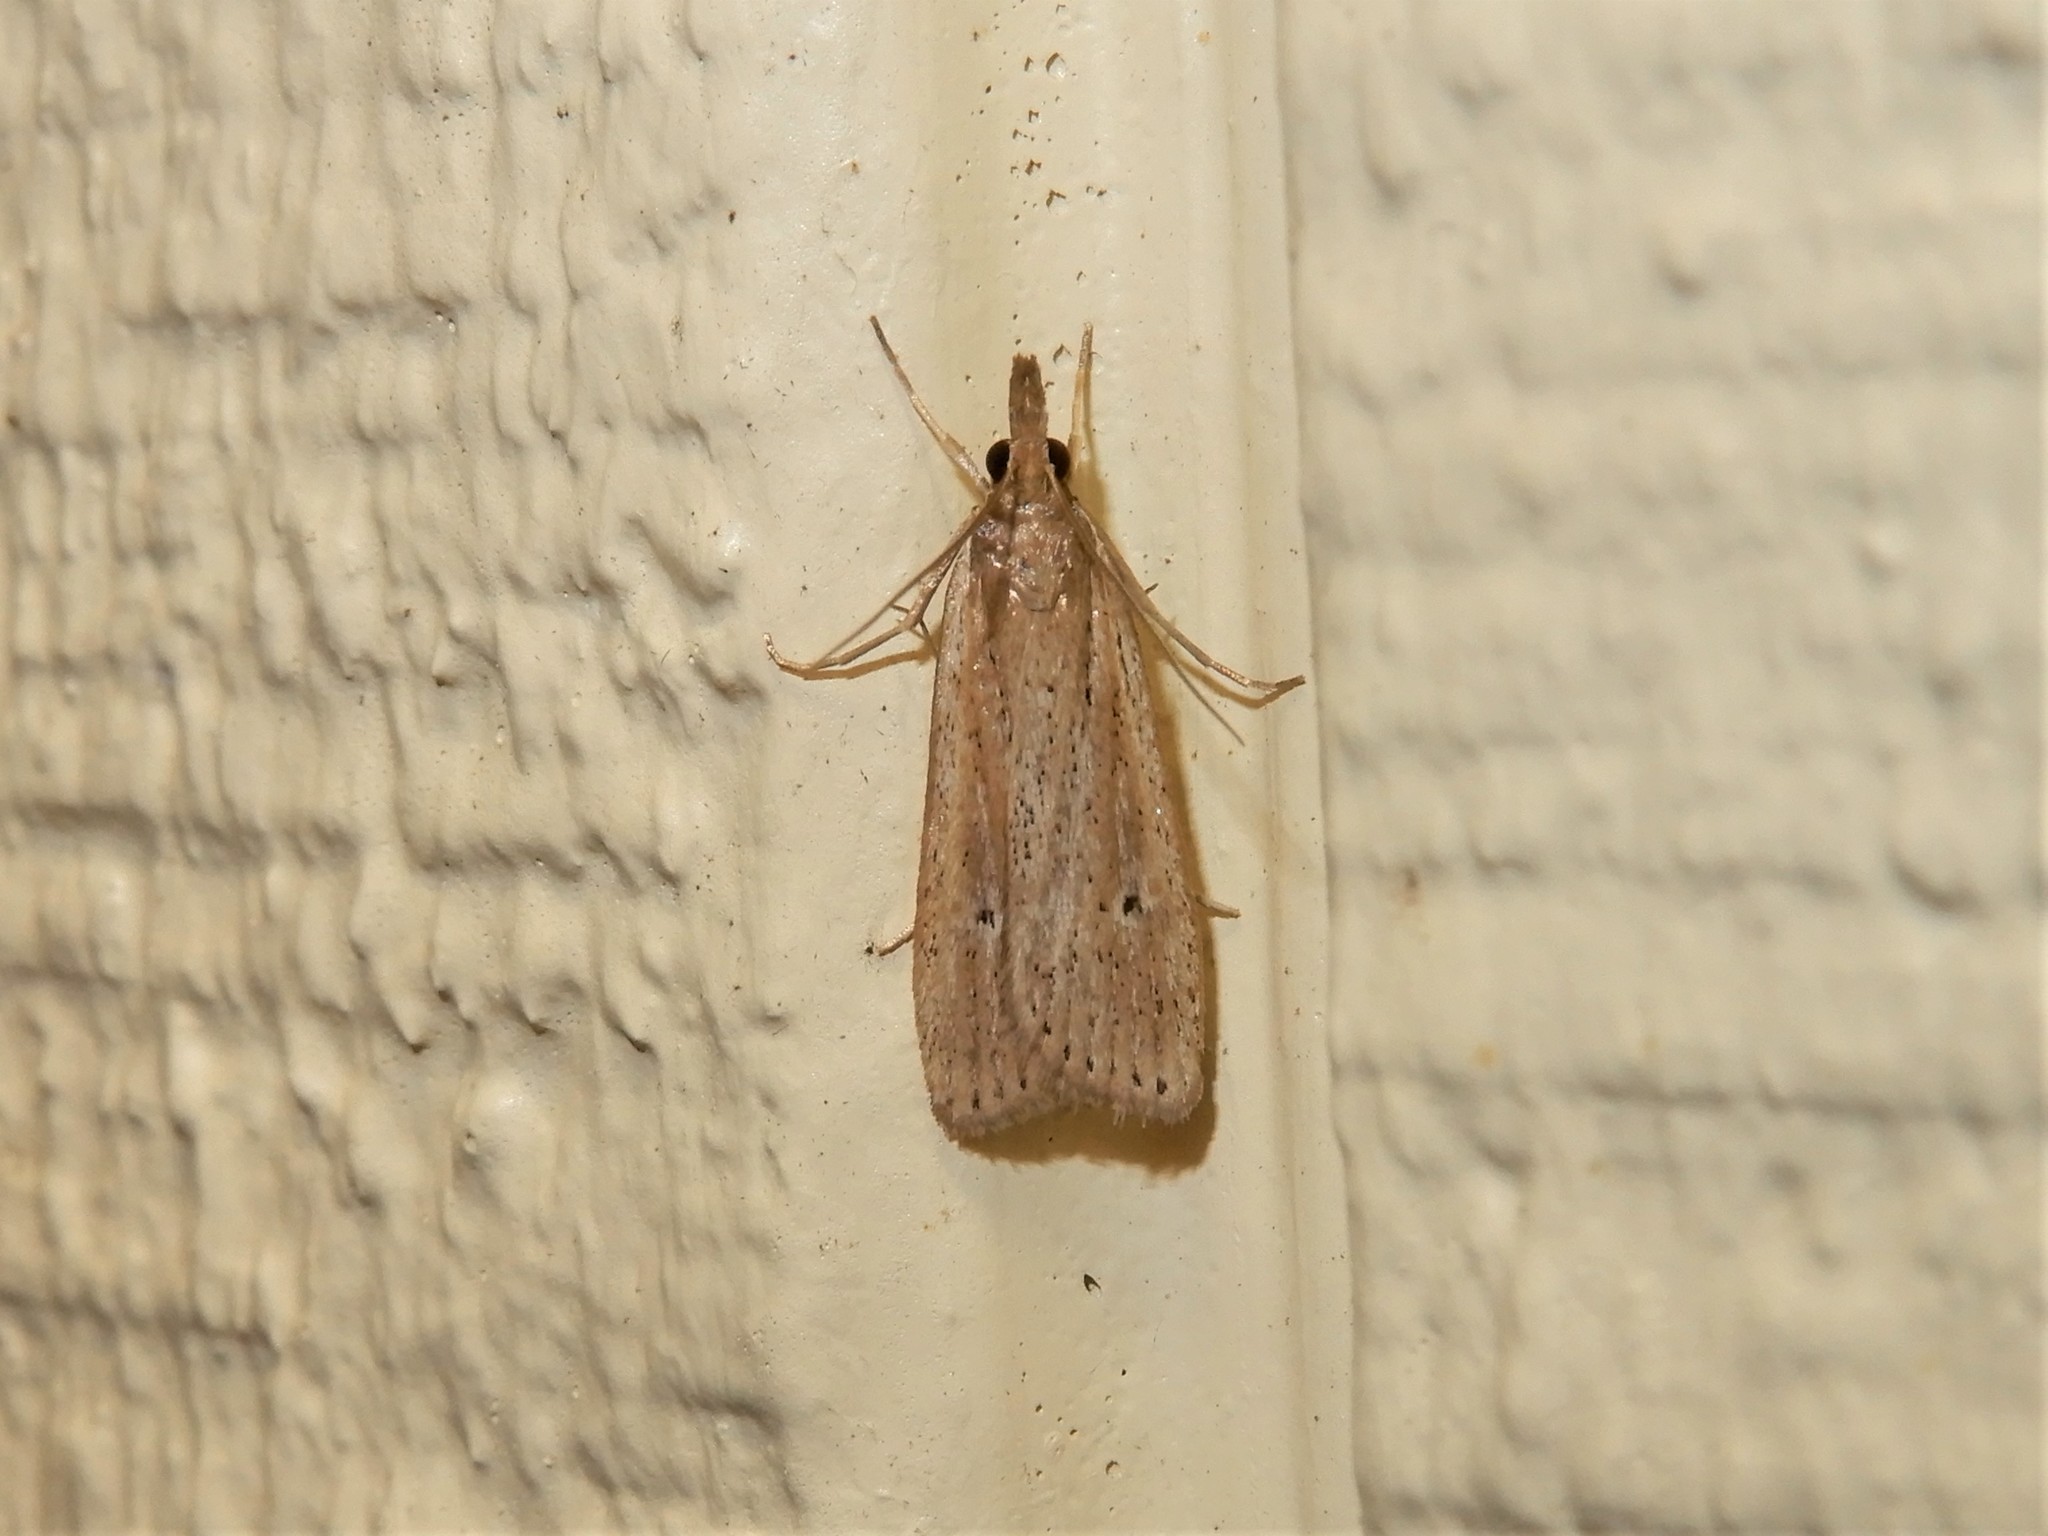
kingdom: Animalia
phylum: Arthropoda
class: Insecta
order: Lepidoptera
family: Crambidae
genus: Eudonia
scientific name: Eudonia sabulosella
